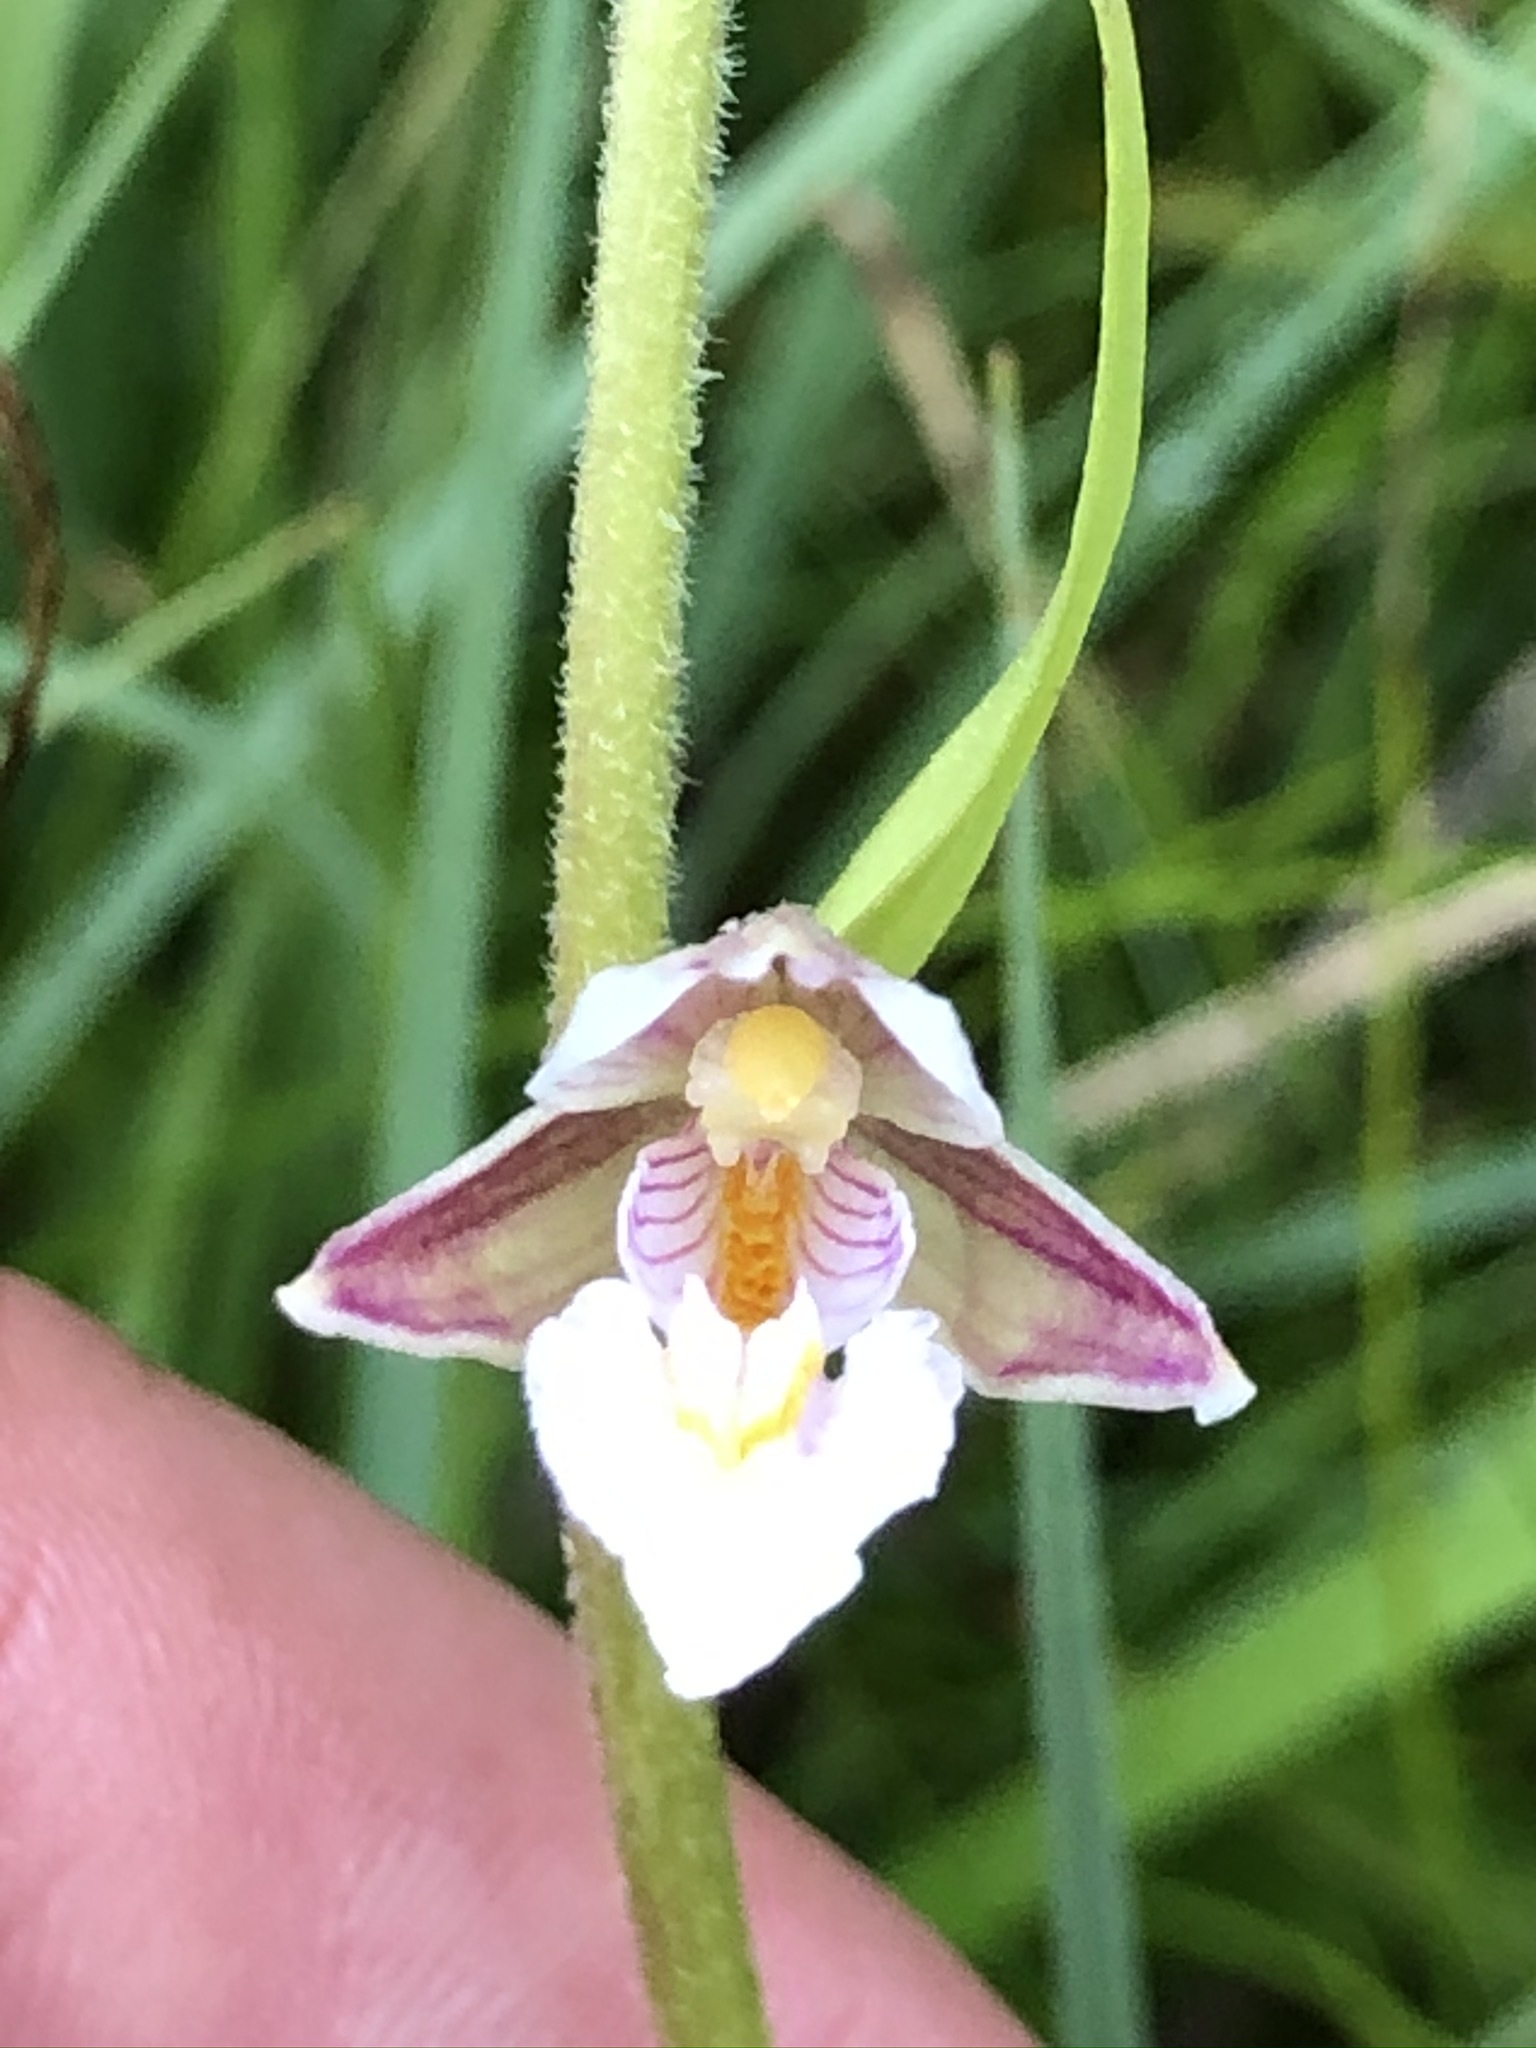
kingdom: Plantae
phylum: Tracheophyta
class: Liliopsida
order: Asparagales
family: Orchidaceae
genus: Epipactis
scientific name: Epipactis palustris
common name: Marsh helleborine
